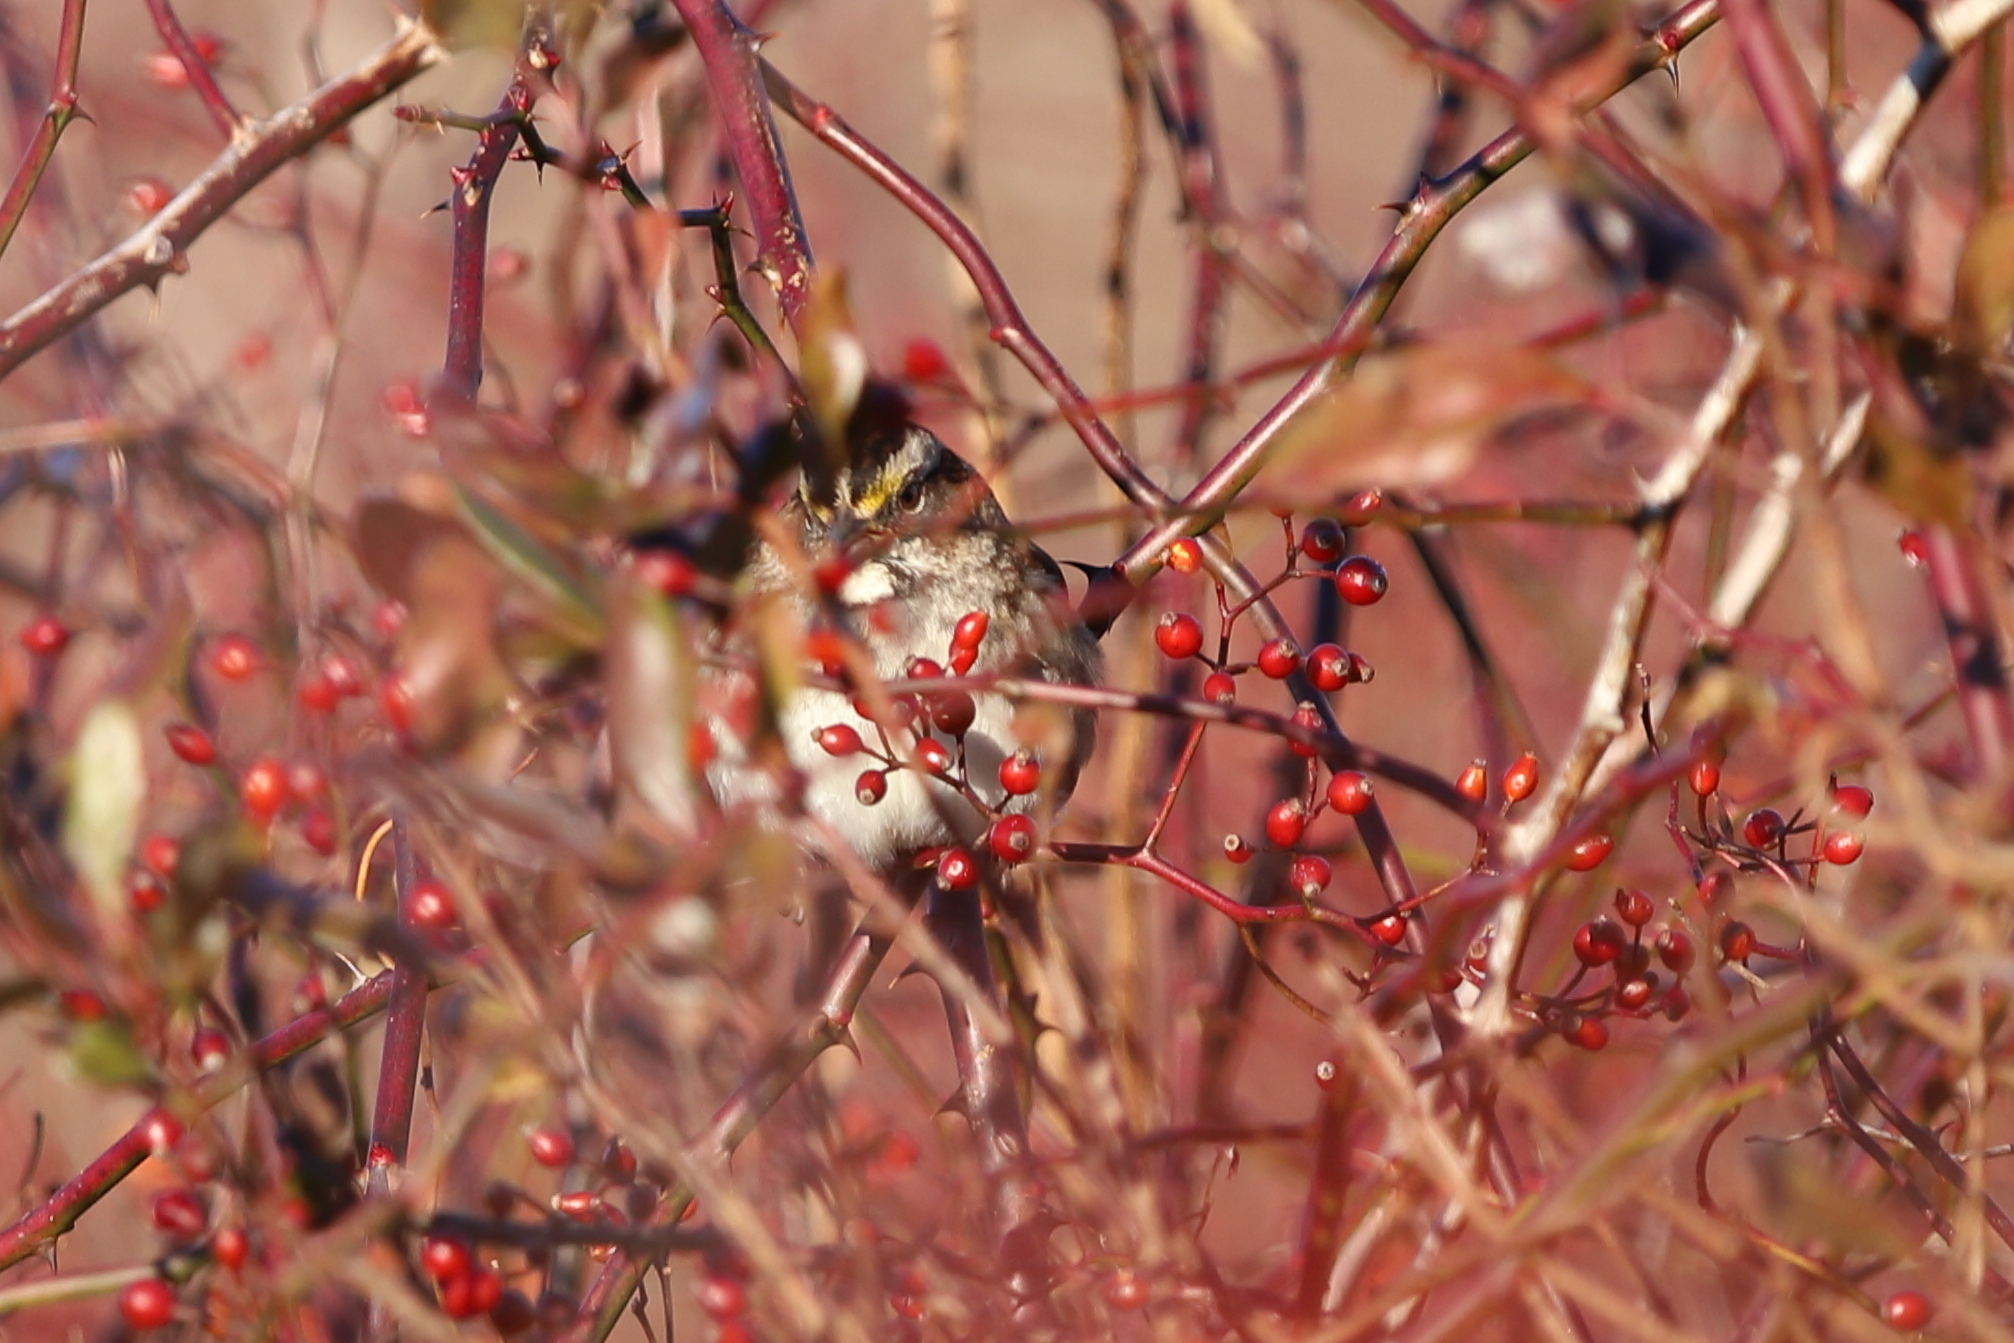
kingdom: Animalia
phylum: Chordata
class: Aves
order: Passeriformes
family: Passerellidae
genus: Zonotrichia
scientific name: Zonotrichia albicollis
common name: White-throated sparrow
